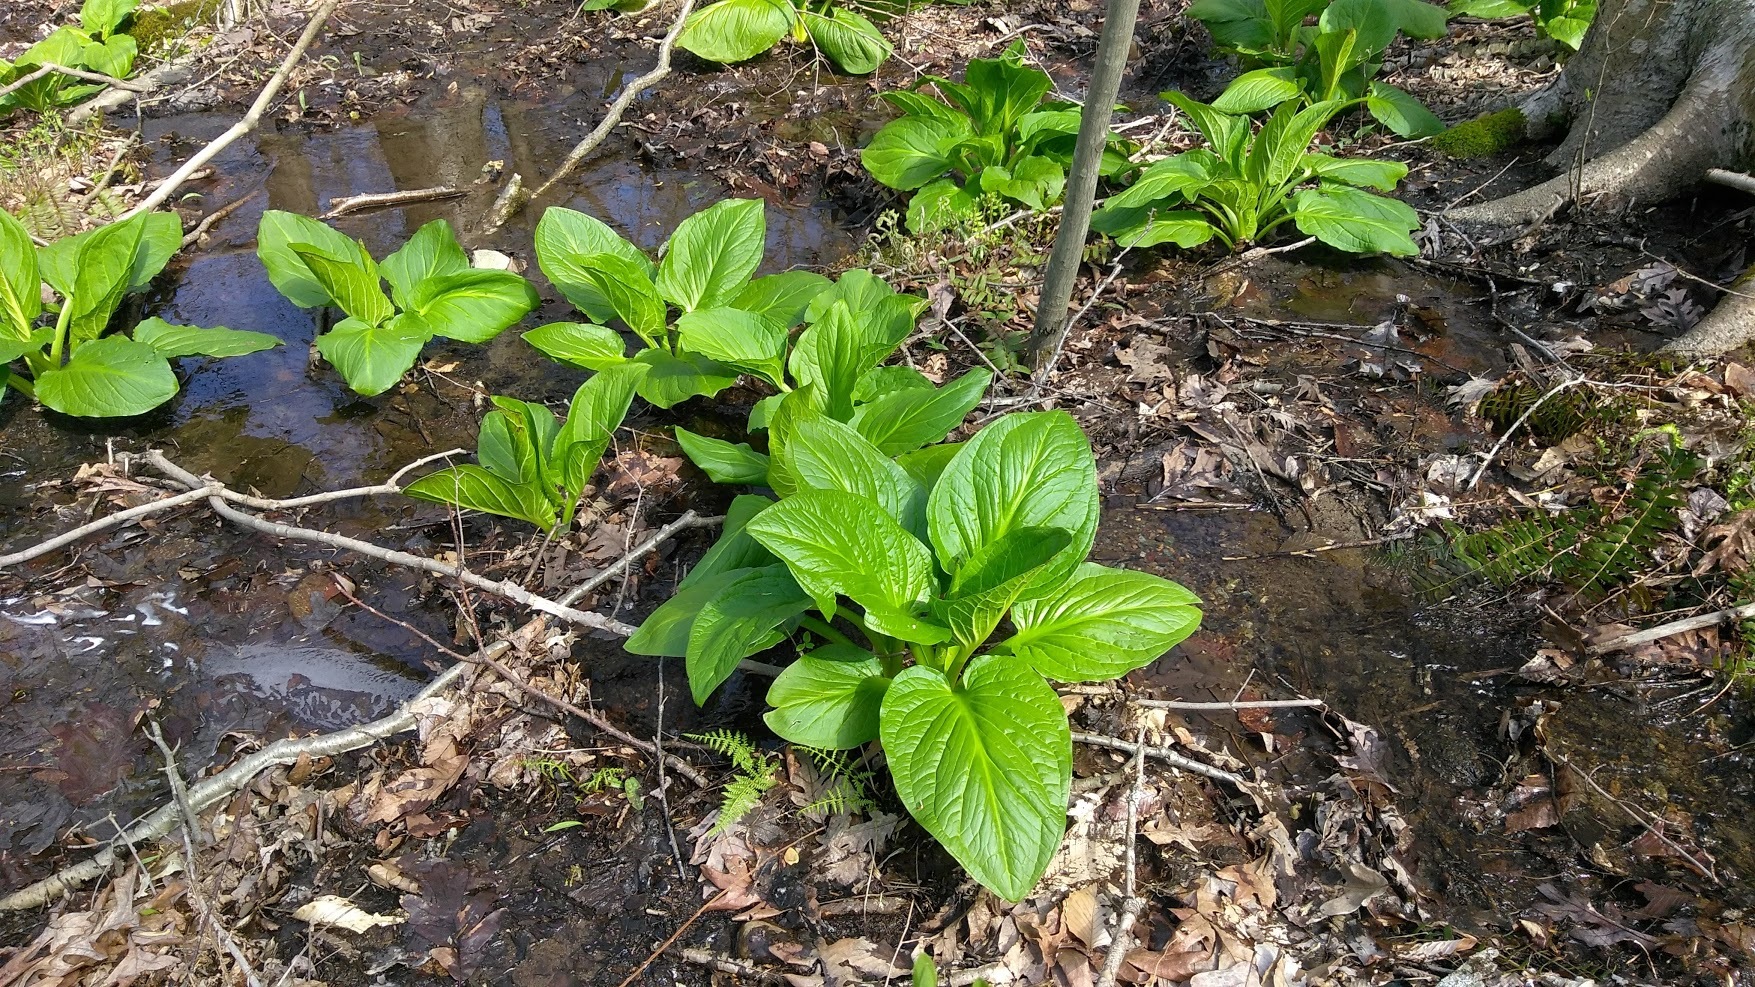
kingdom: Plantae
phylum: Tracheophyta
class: Liliopsida
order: Alismatales
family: Araceae
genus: Symplocarpus
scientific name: Symplocarpus foetidus
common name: Eastern skunk cabbage
